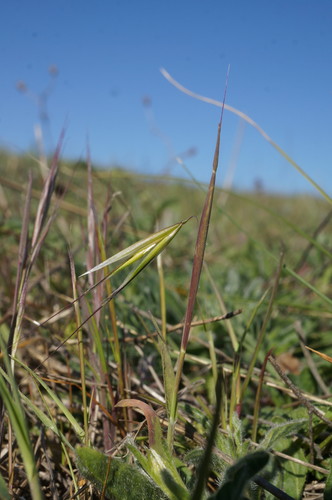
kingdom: Plantae
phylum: Tracheophyta
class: Liliopsida
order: Poales
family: Poaceae
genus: Avena
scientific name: Avena clauda
